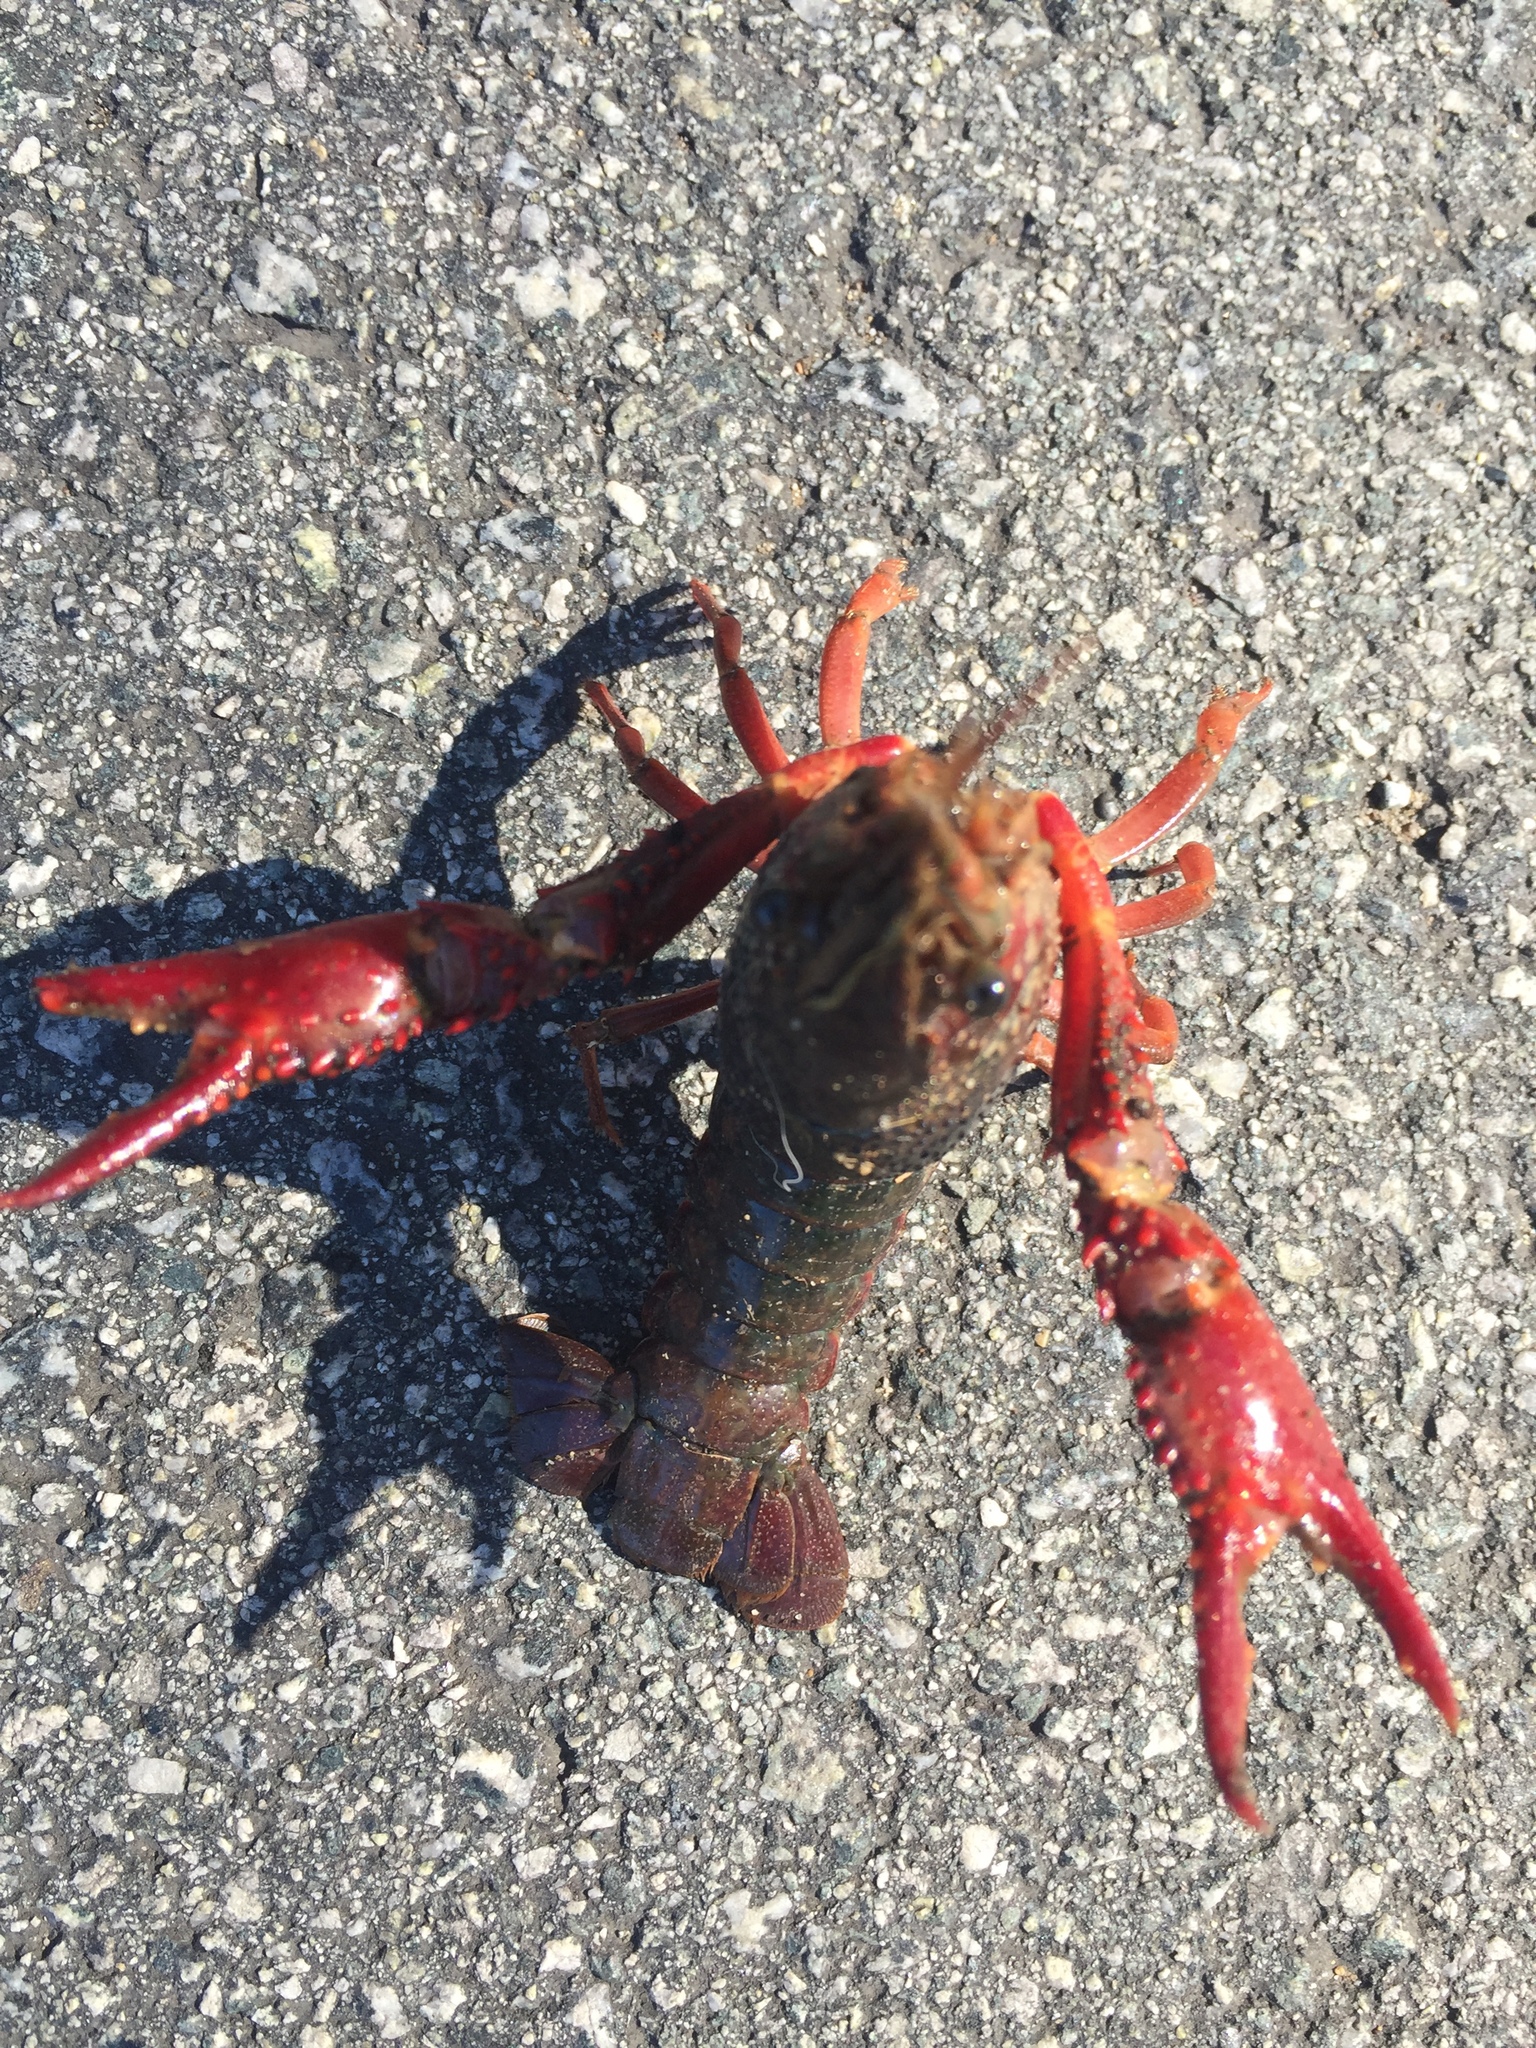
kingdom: Animalia
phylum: Arthropoda
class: Malacostraca
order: Decapoda
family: Cambaridae
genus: Procambarus
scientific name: Procambarus clarkii
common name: Red swamp crayfish
